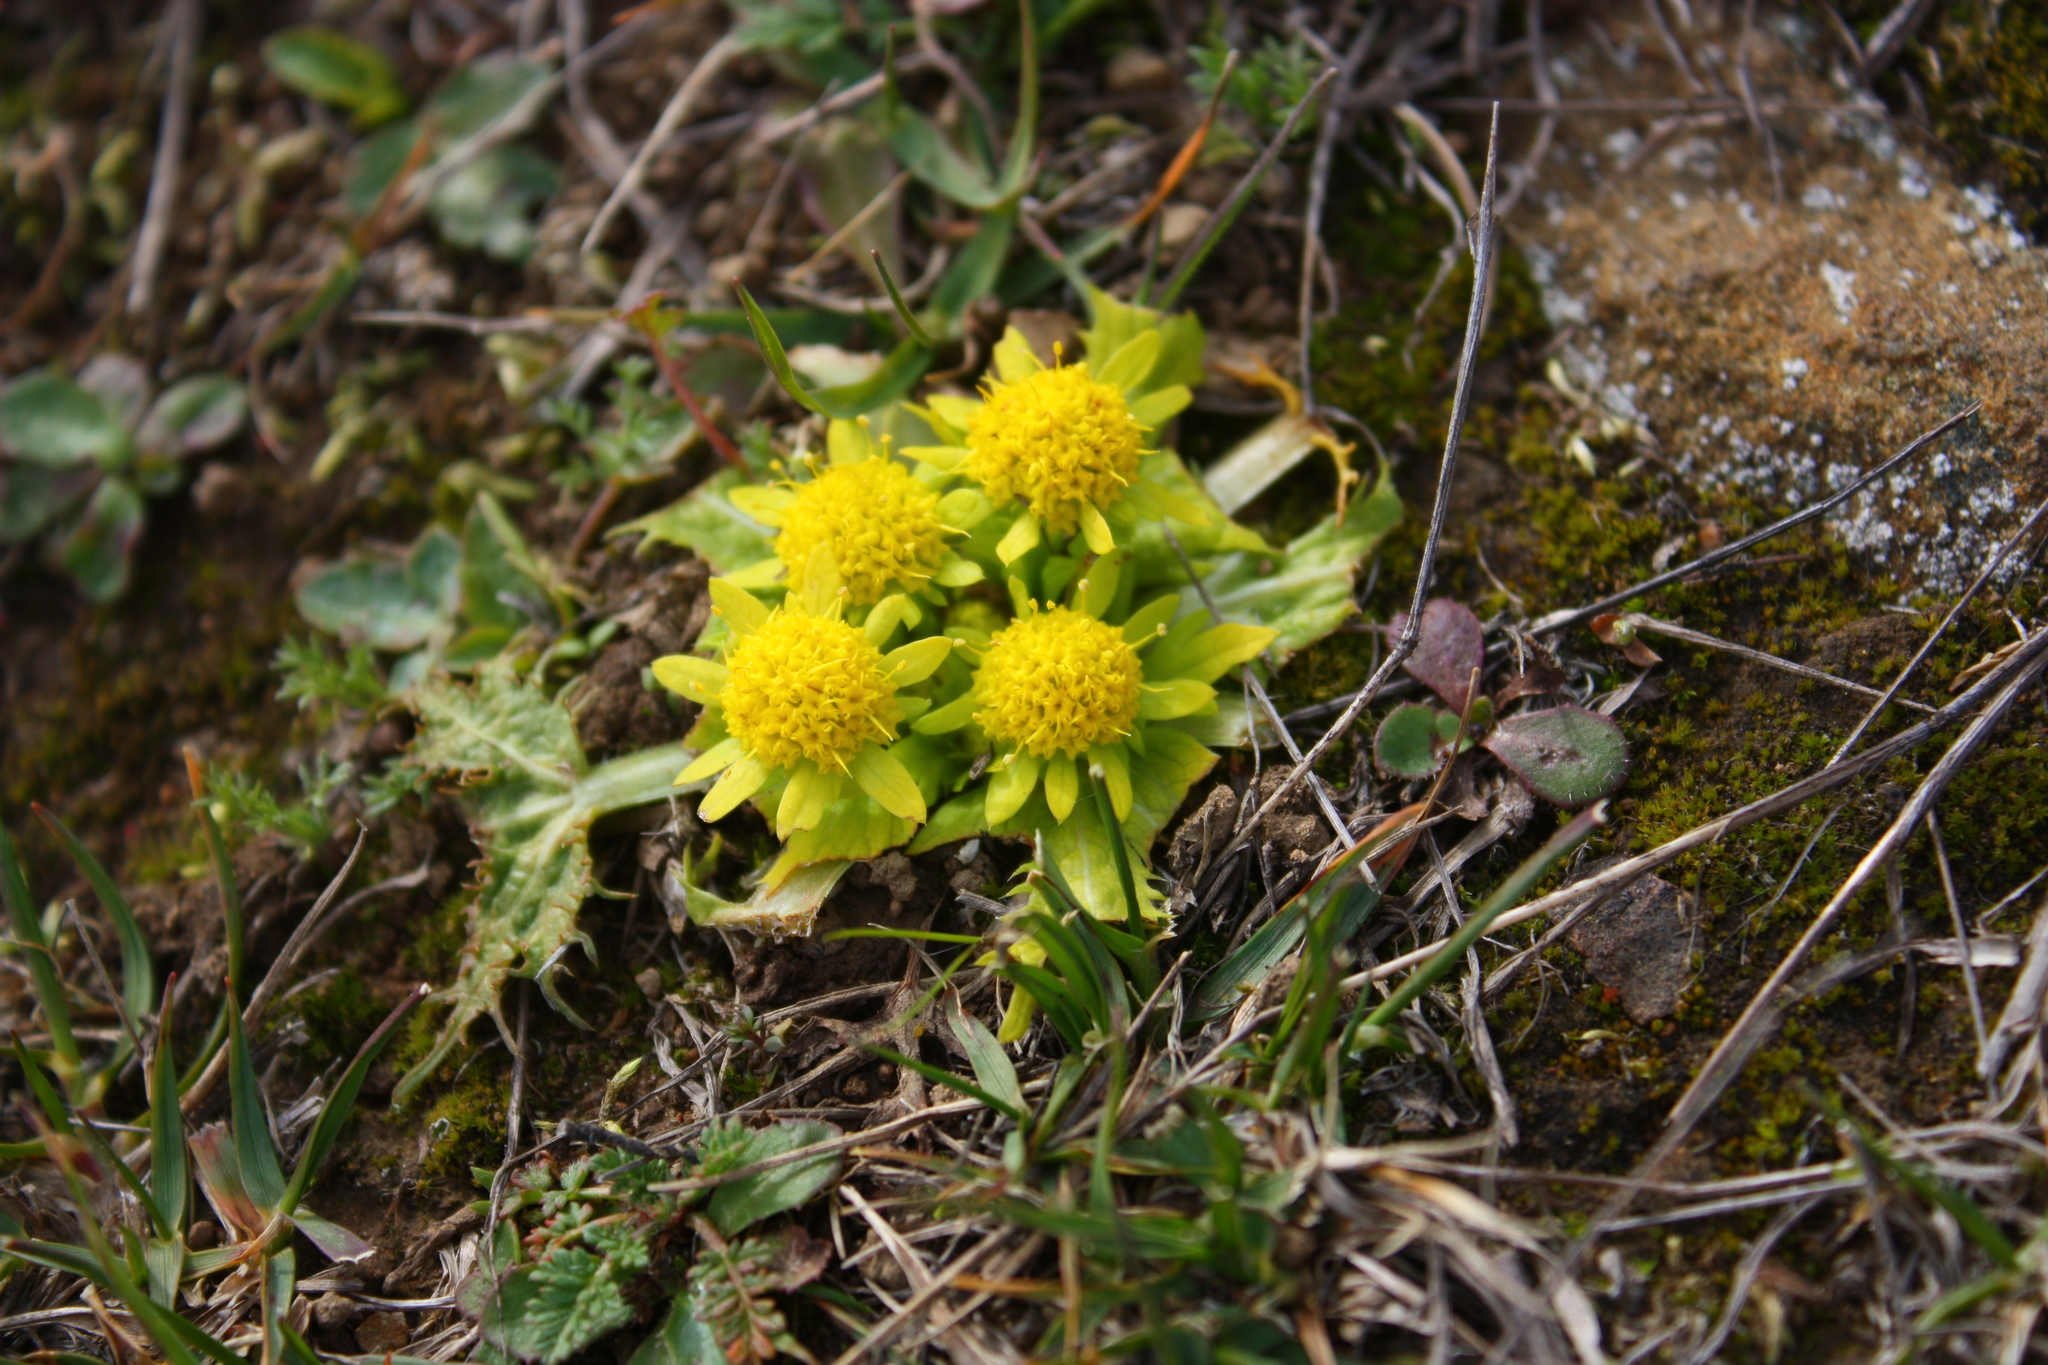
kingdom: Plantae
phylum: Tracheophyta
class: Magnoliopsida
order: Apiales
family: Apiaceae
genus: Sanicula
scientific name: Sanicula arctopoides
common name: Footsteps-of-spring
